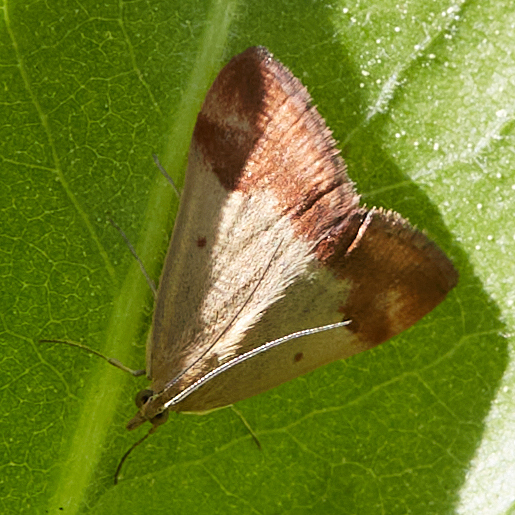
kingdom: Animalia
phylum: Arthropoda
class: Insecta
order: Lepidoptera
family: Crambidae
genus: Pyrausta
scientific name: Pyrausta semirubralis
